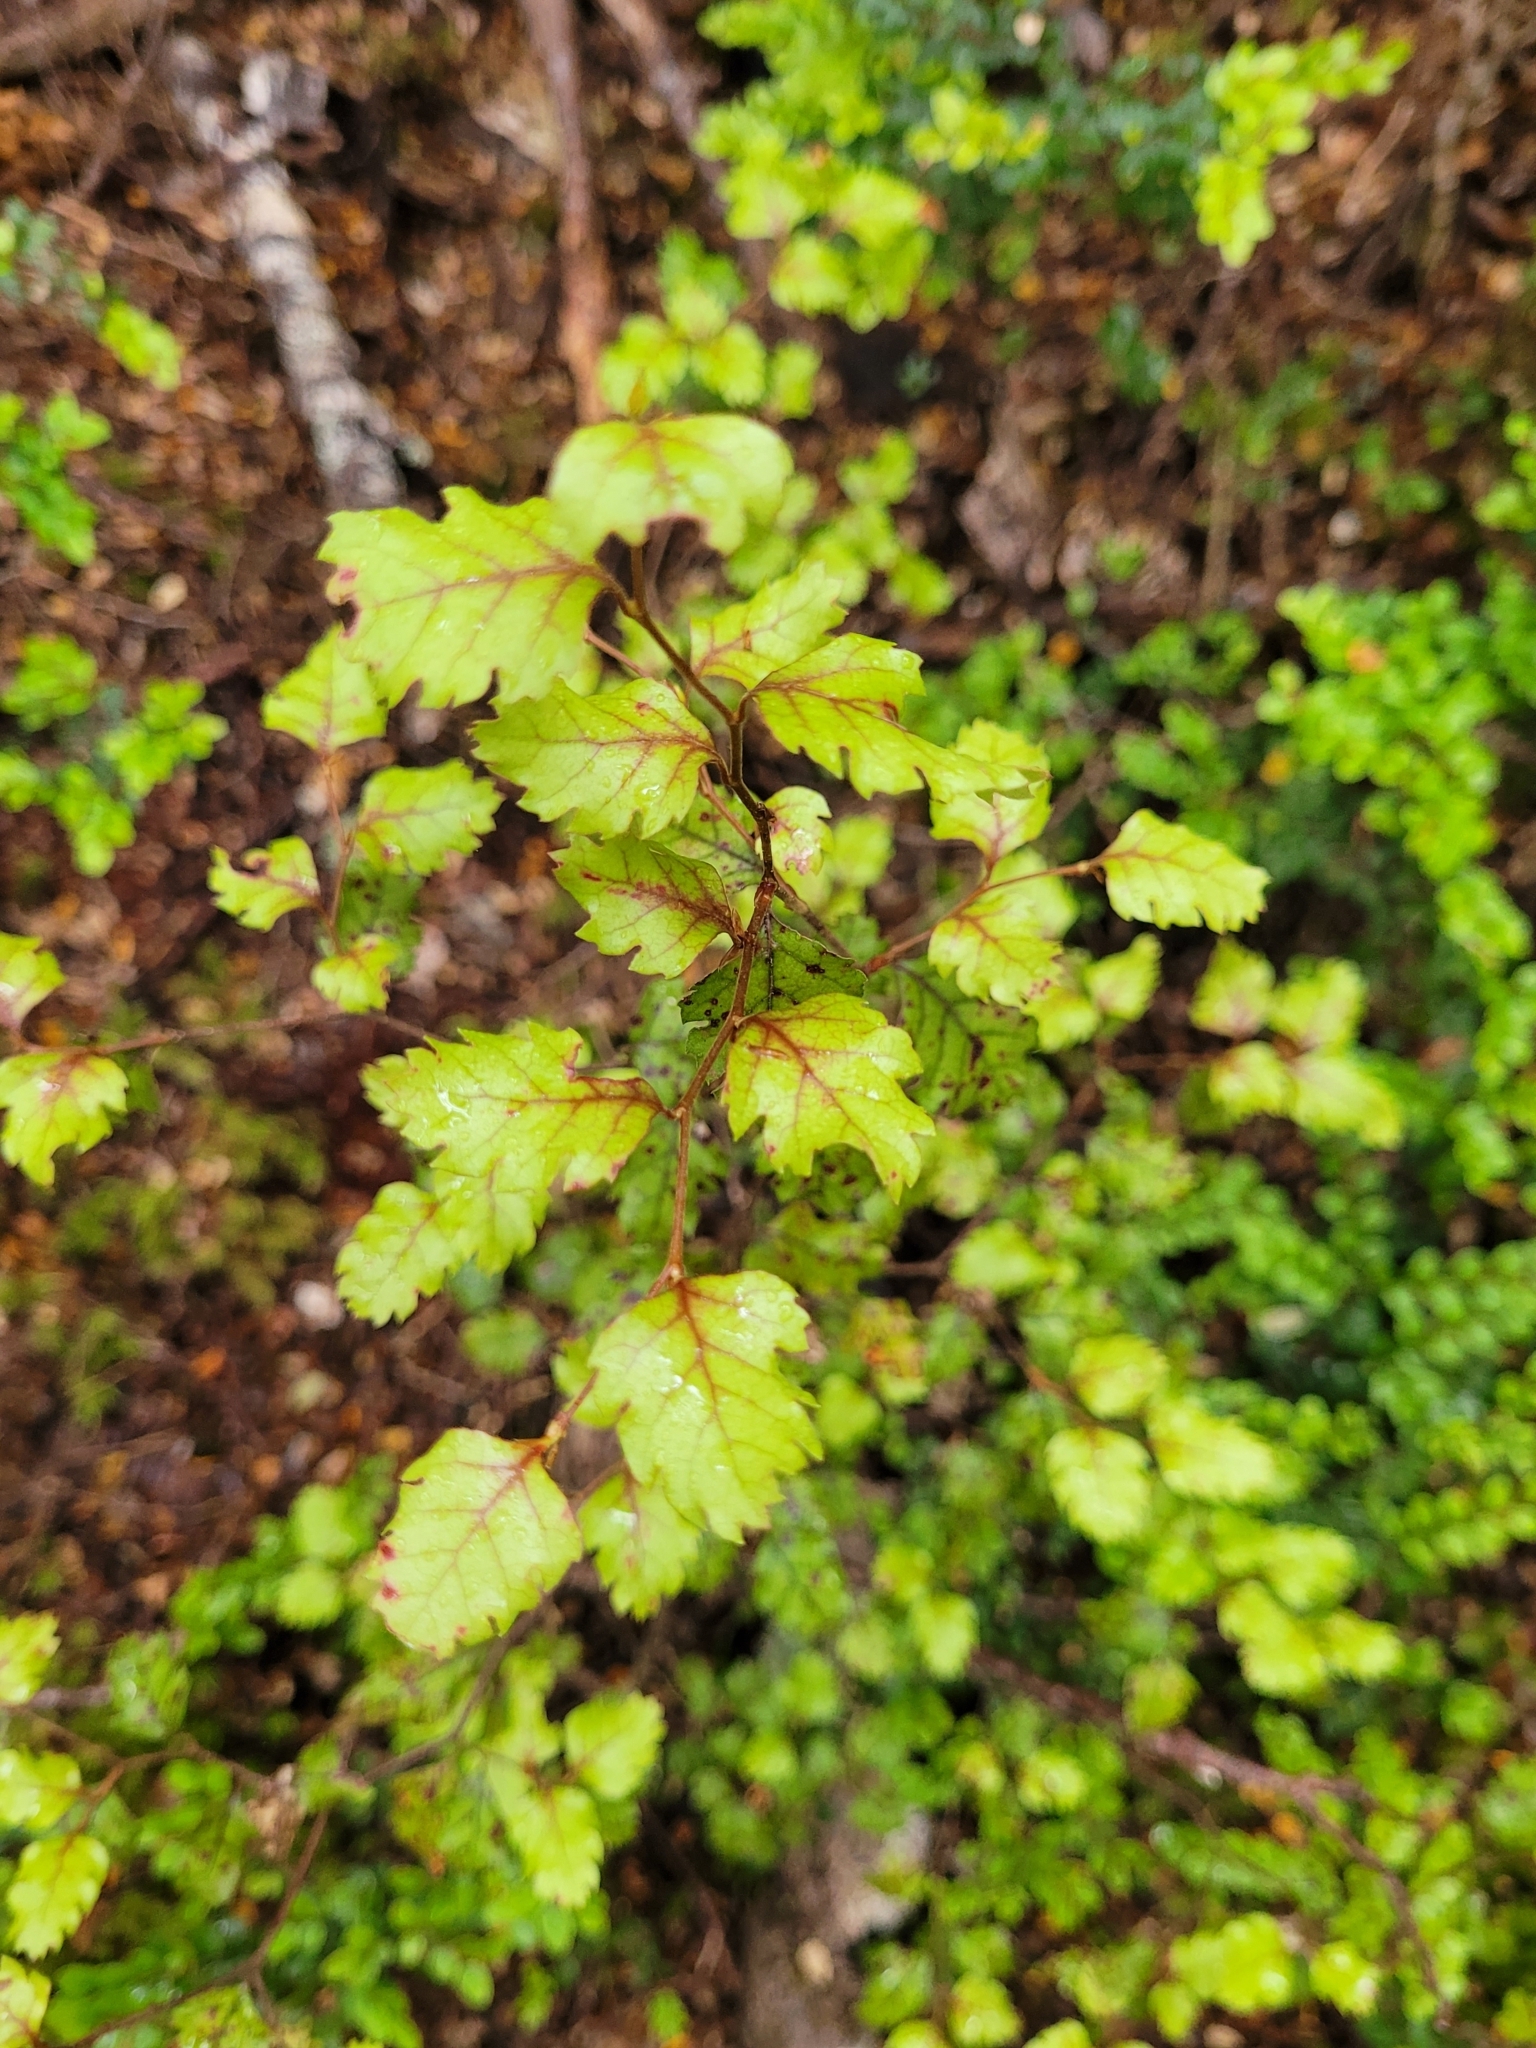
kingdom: Plantae
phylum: Tracheophyta
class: Magnoliopsida
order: Fagales
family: Nothofagaceae
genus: Nothofagus
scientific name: Nothofagus fusca
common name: Red beech
